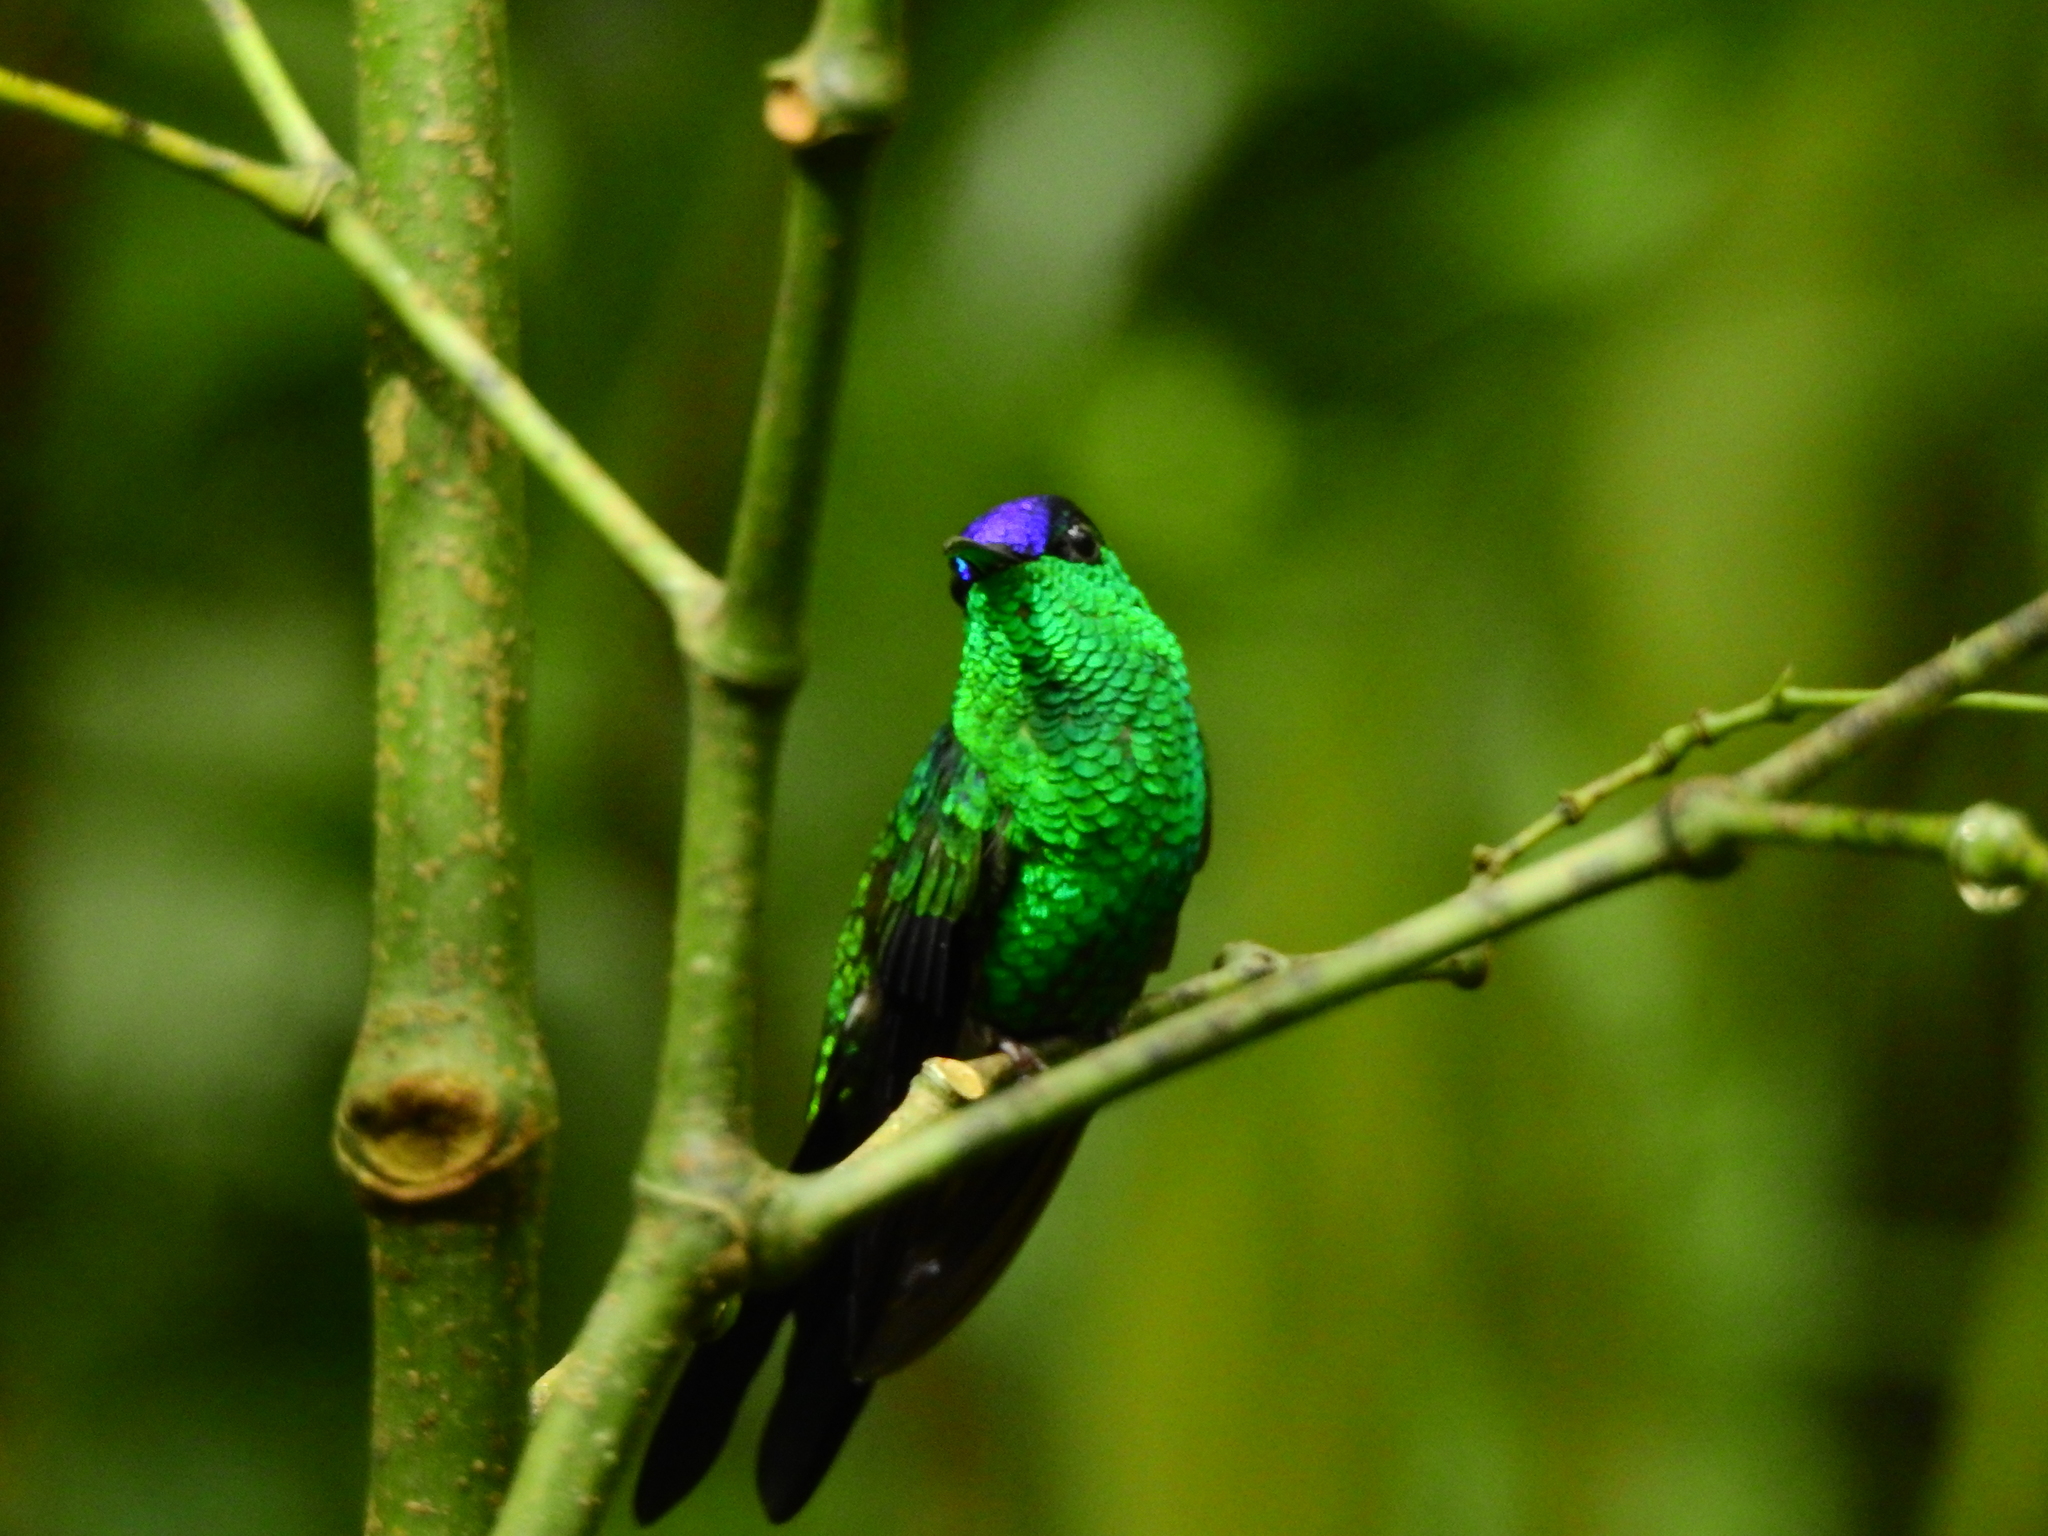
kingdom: Animalia
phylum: Chordata
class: Aves
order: Apodiformes
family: Trochilidae
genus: Thalurania
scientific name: Thalurania glaucopis
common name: Violet-capped woodnymph
